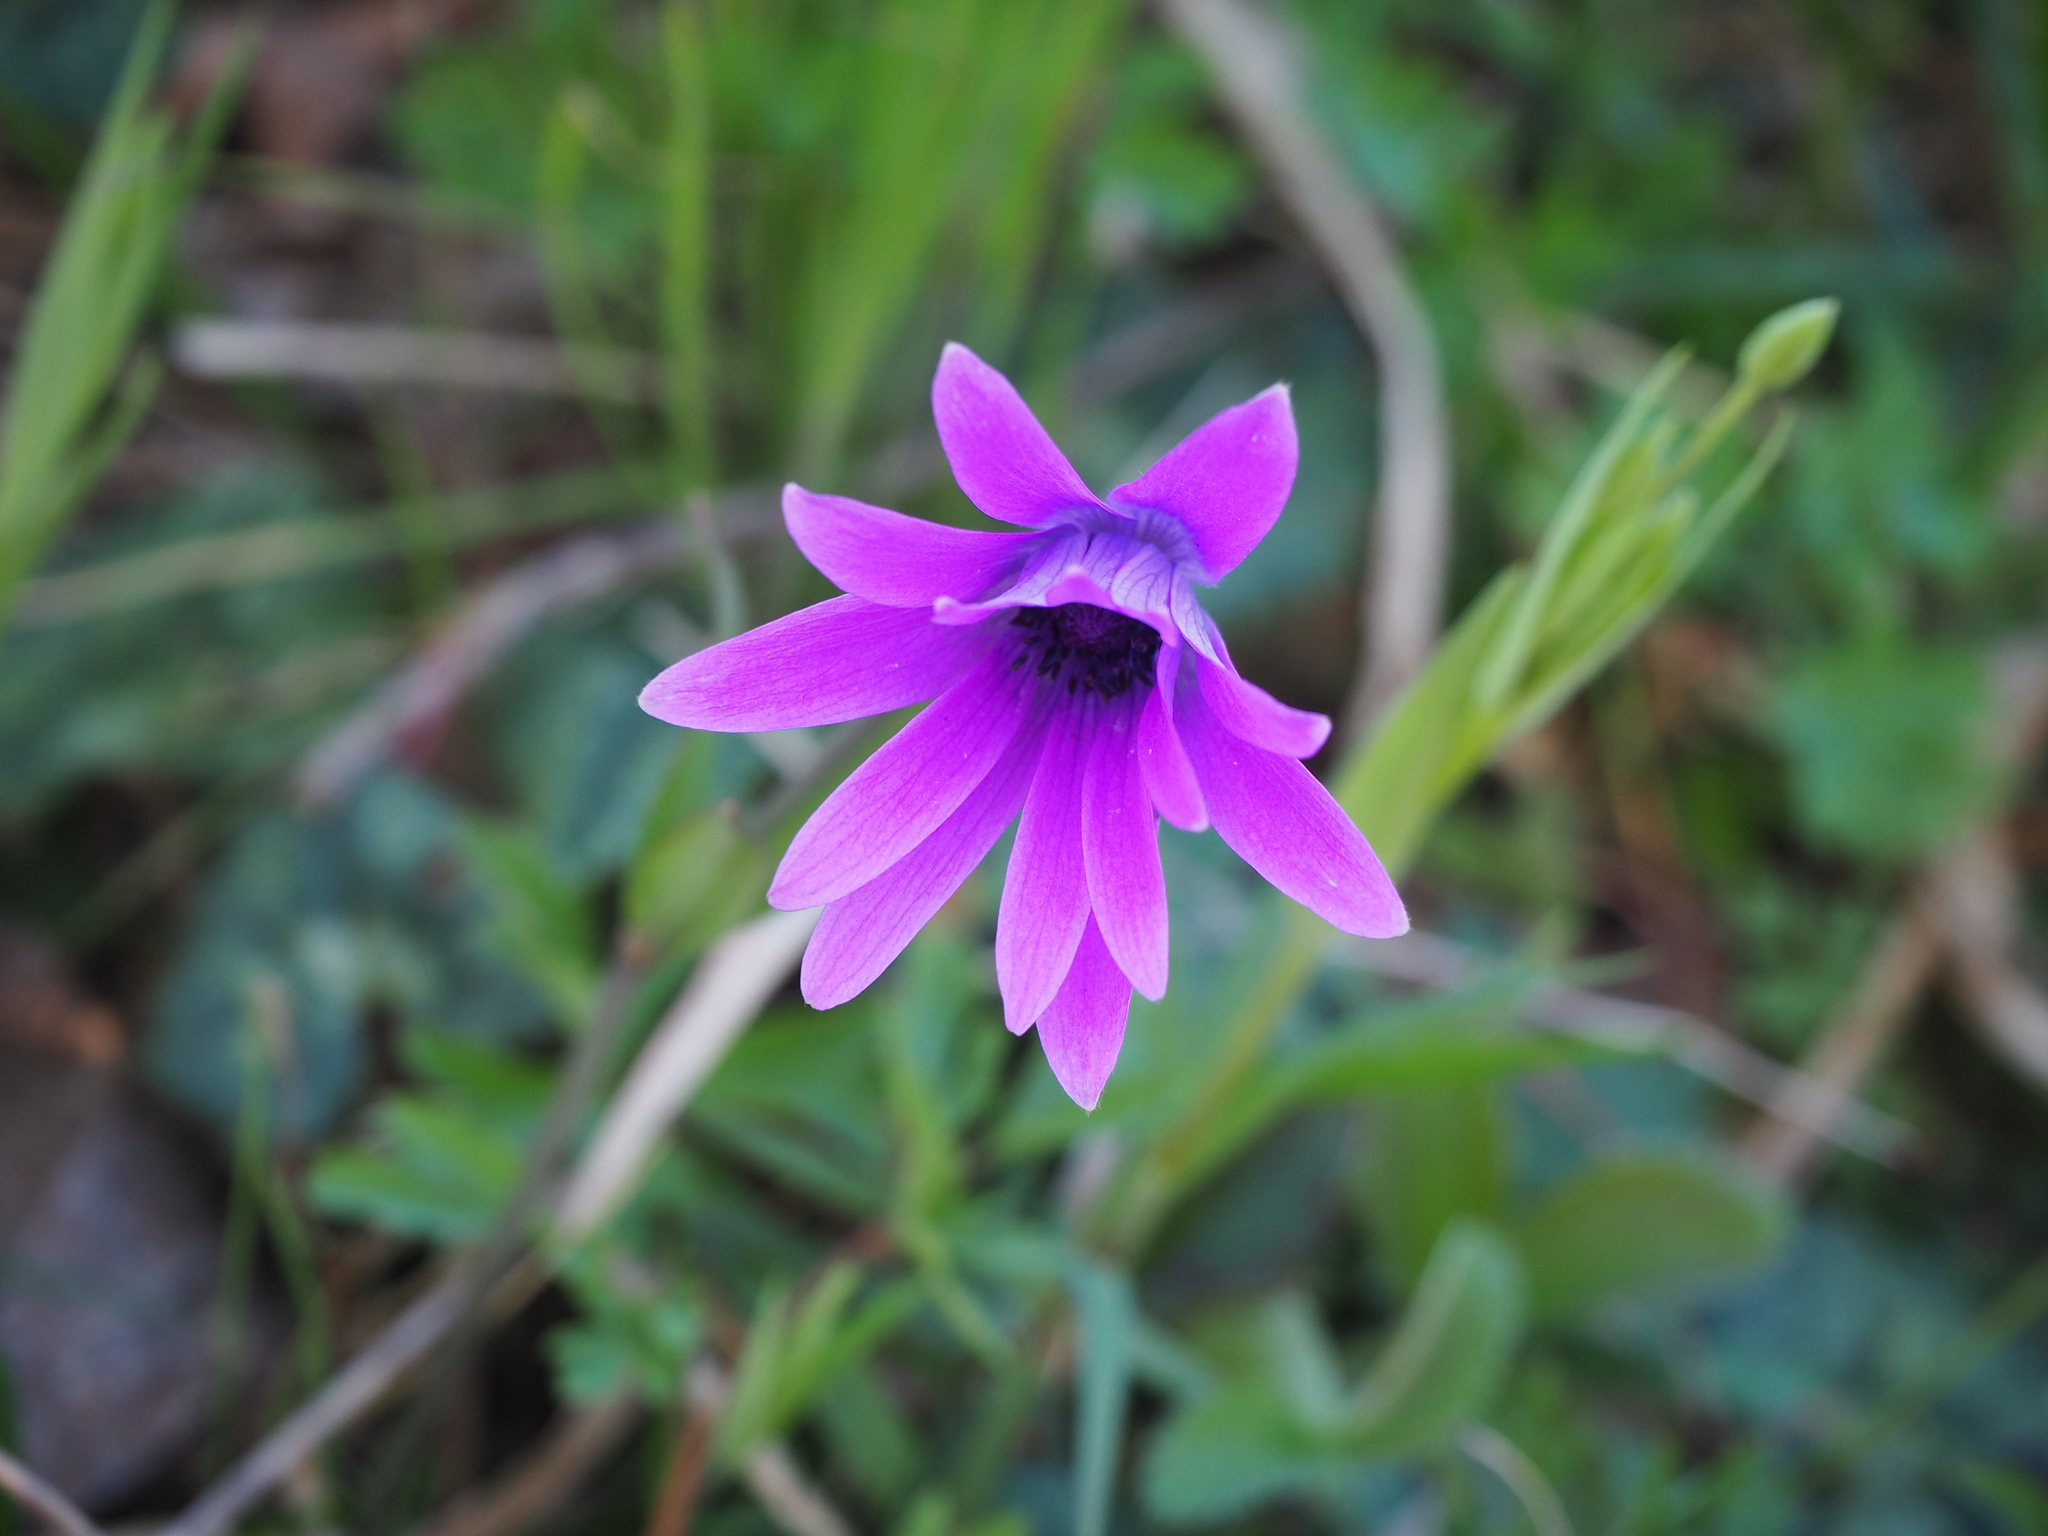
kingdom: Plantae
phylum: Tracheophyta
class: Magnoliopsida
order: Ranunculales
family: Ranunculaceae
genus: Anemone
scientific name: Anemone hortensis
